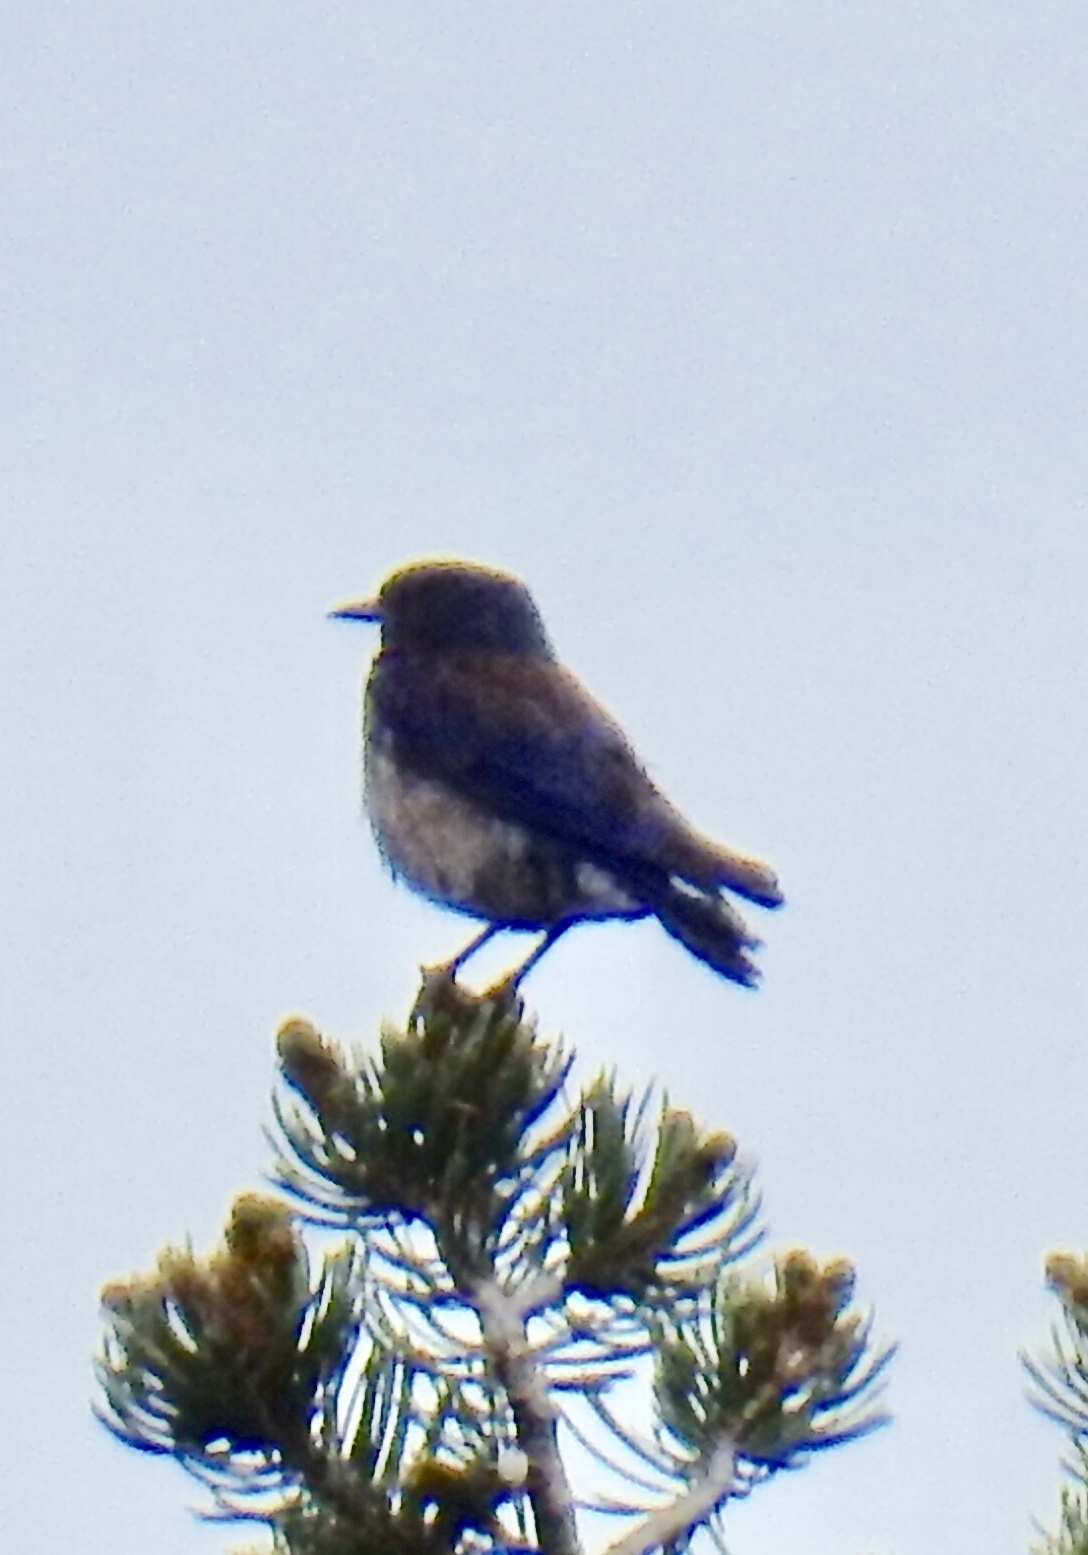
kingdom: Animalia
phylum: Chordata
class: Aves
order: Passeriformes
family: Turdidae
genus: Sialia
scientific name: Sialia mexicana
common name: Western bluebird
